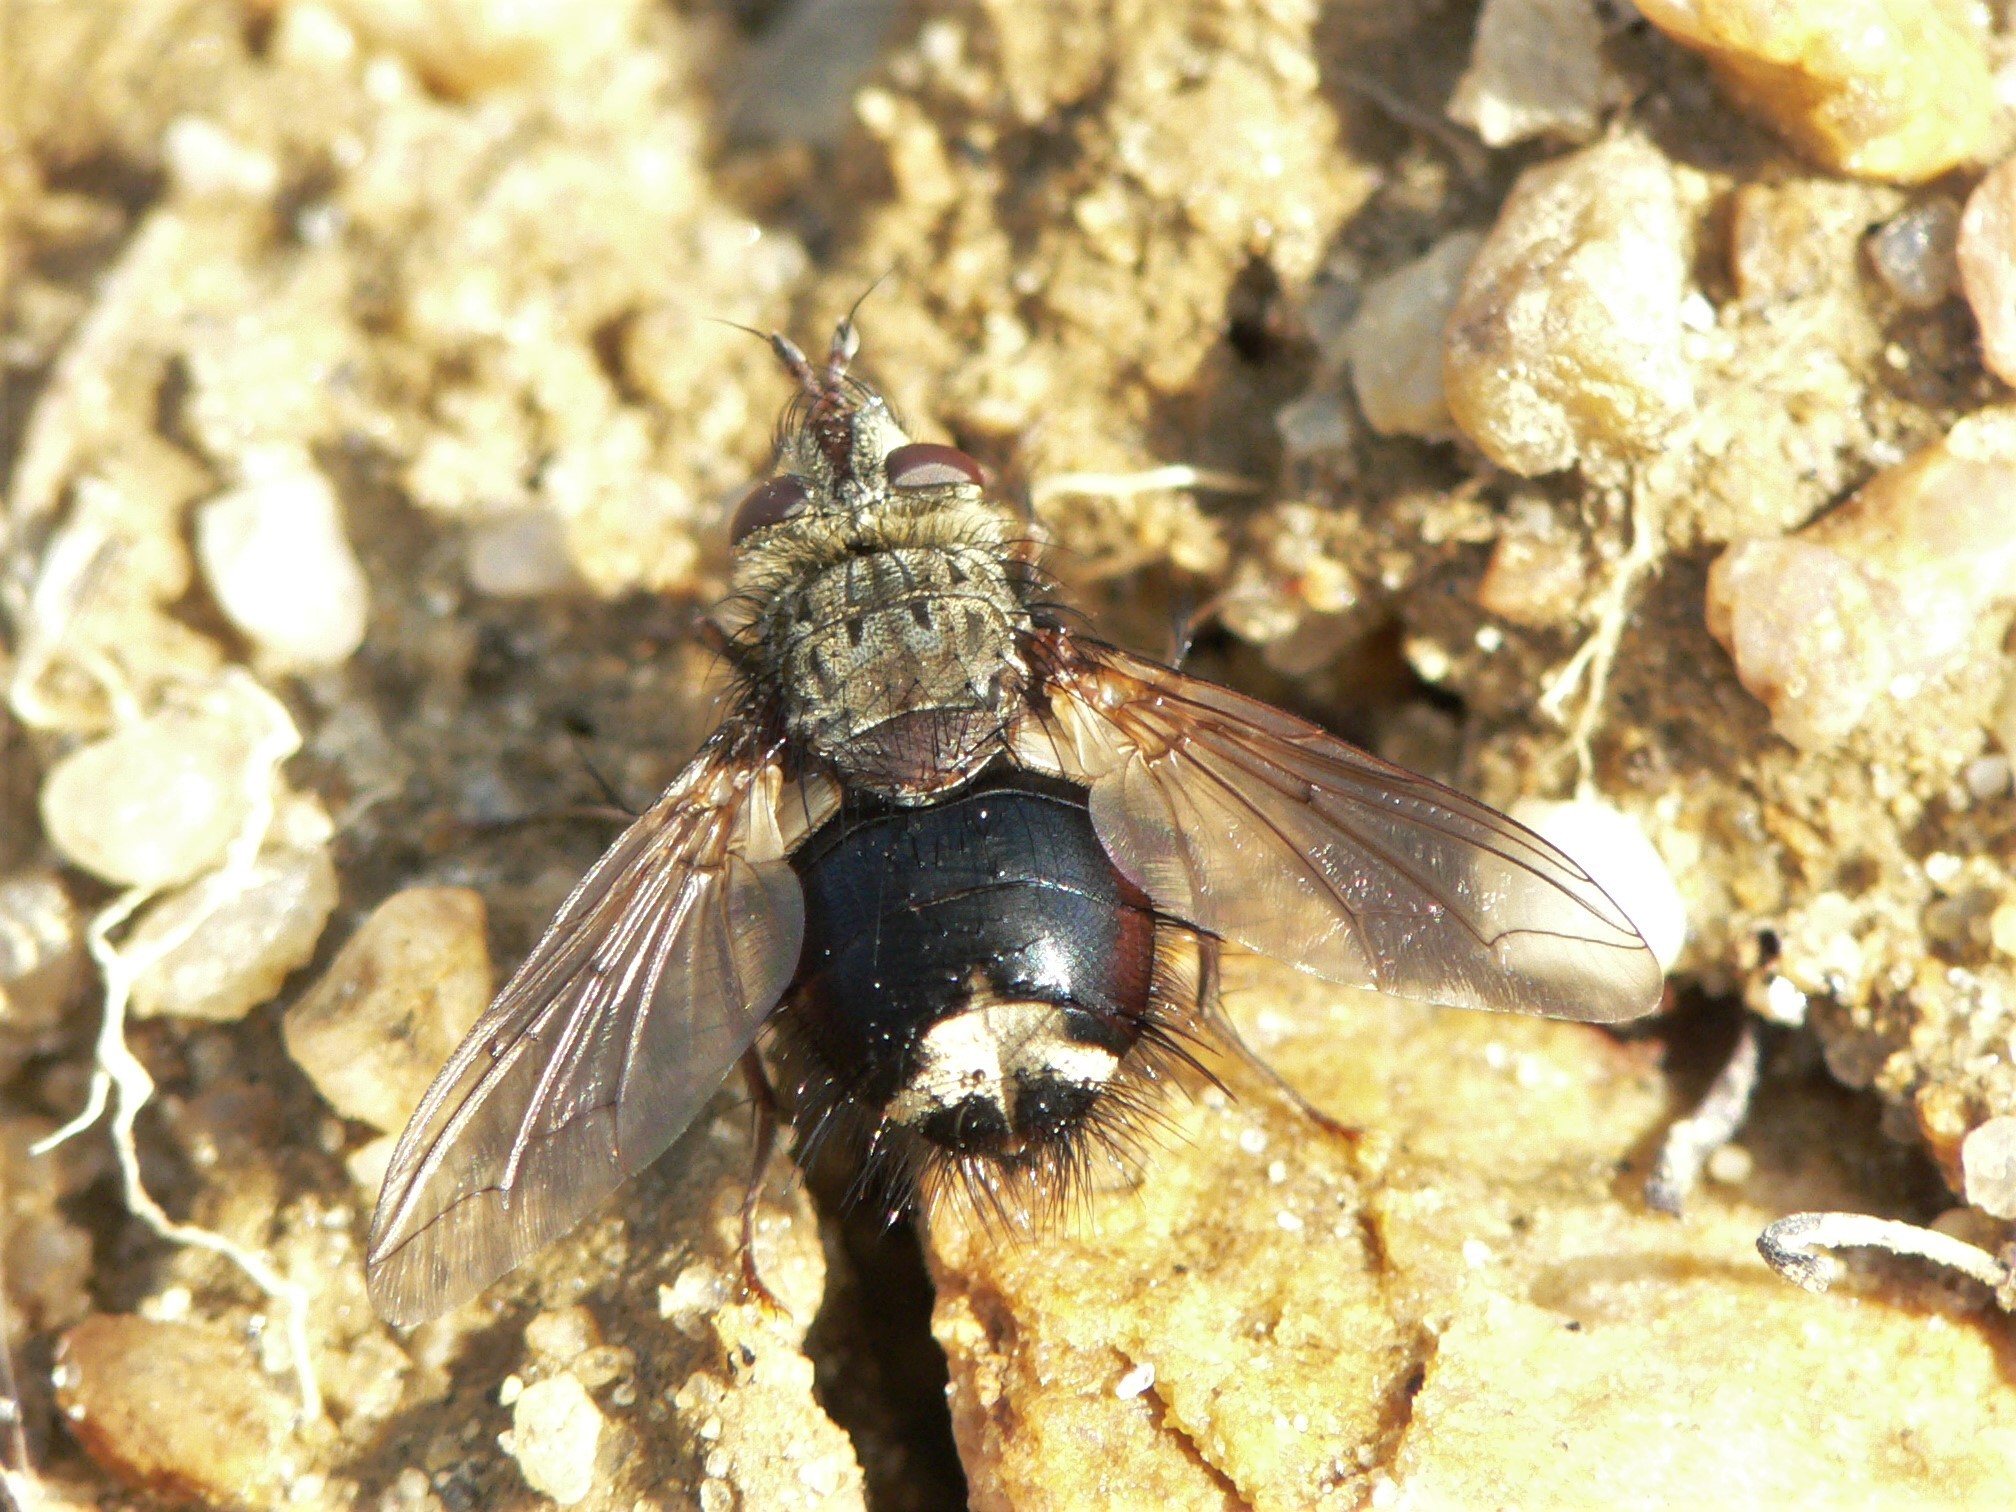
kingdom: Animalia
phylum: Arthropoda
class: Insecta
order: Diptera
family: Tachinidae
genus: Epalpus
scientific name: Epalpus signifer
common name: Early tachinid fly
